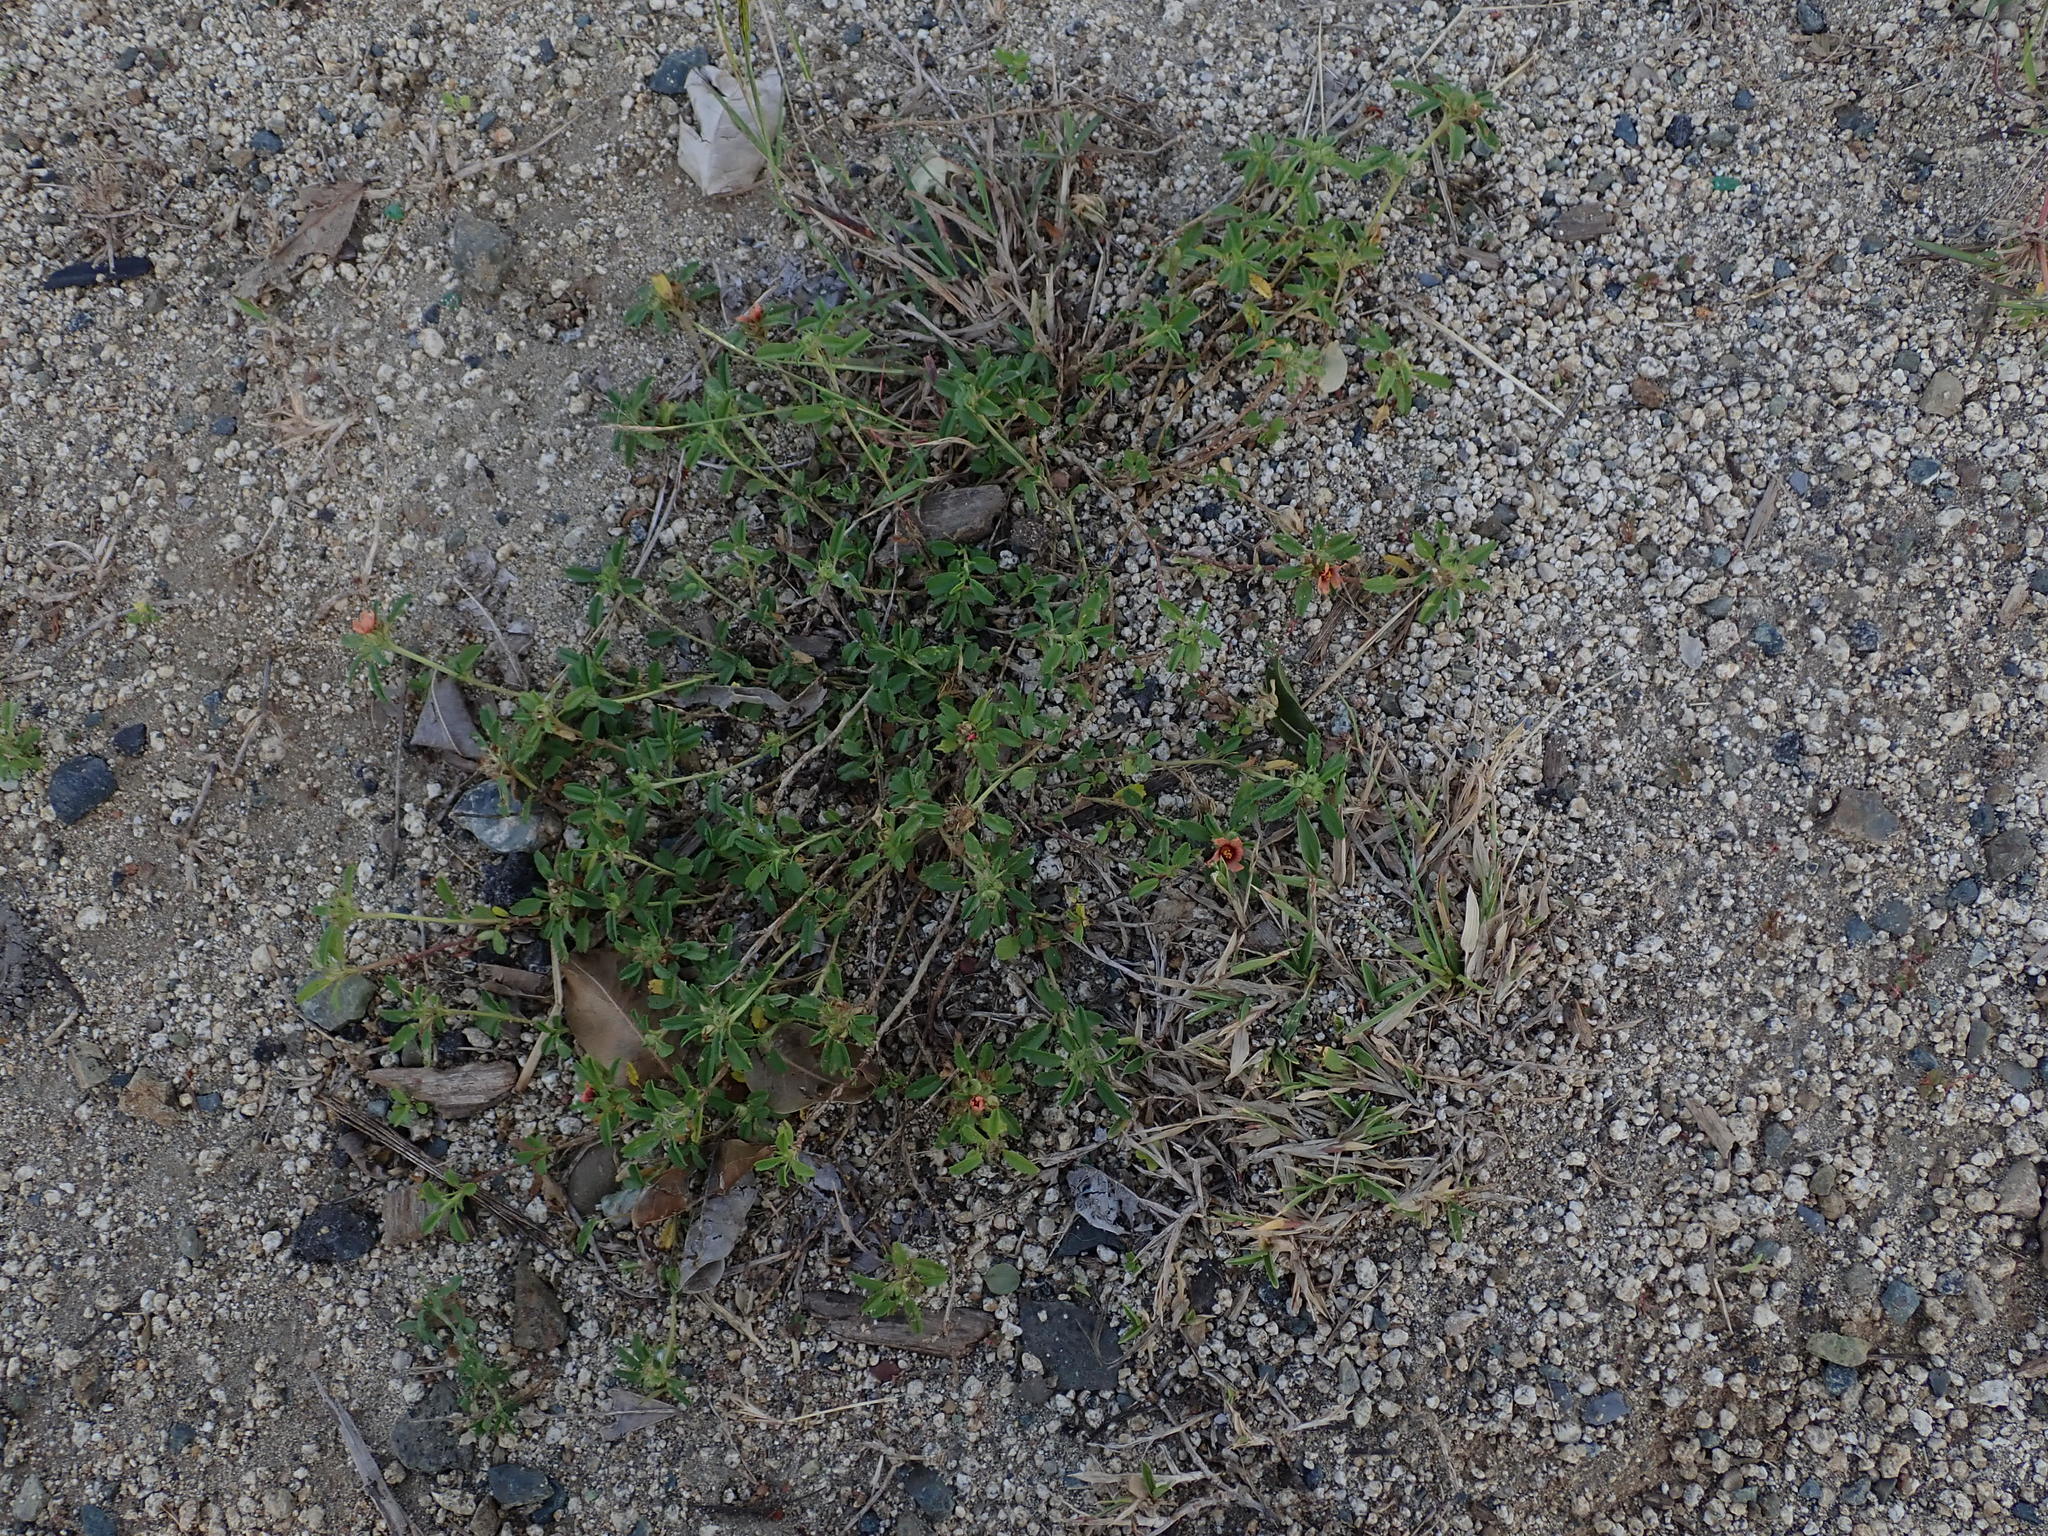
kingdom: Plantae
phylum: Tracheophyta
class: Magnoliopsida
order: Malvales
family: Malvaceae
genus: Sida
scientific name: Sida ciliaris
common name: Bracted fanpetals
